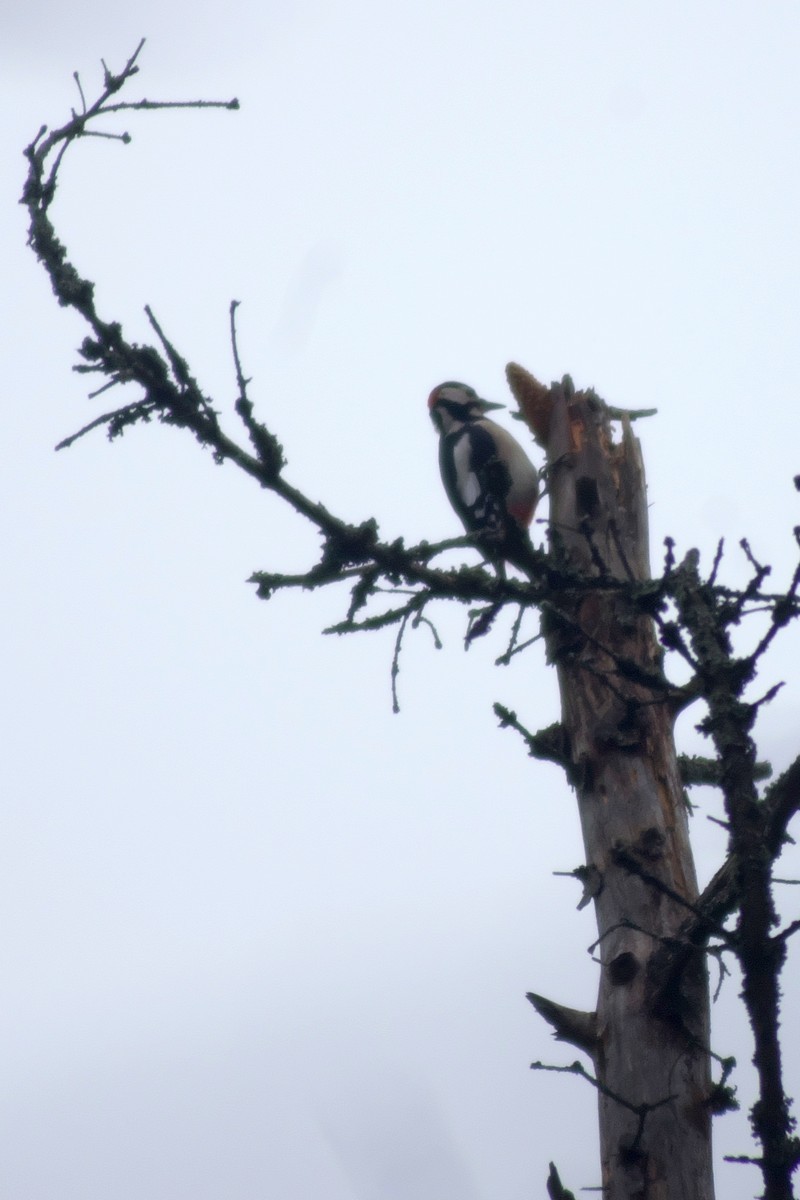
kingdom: Animalia
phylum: Chordata
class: Aves
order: Piciformes
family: Picidae
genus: Dendrocopos
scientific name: Dendrocopos major
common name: Great spotted woodpecker
